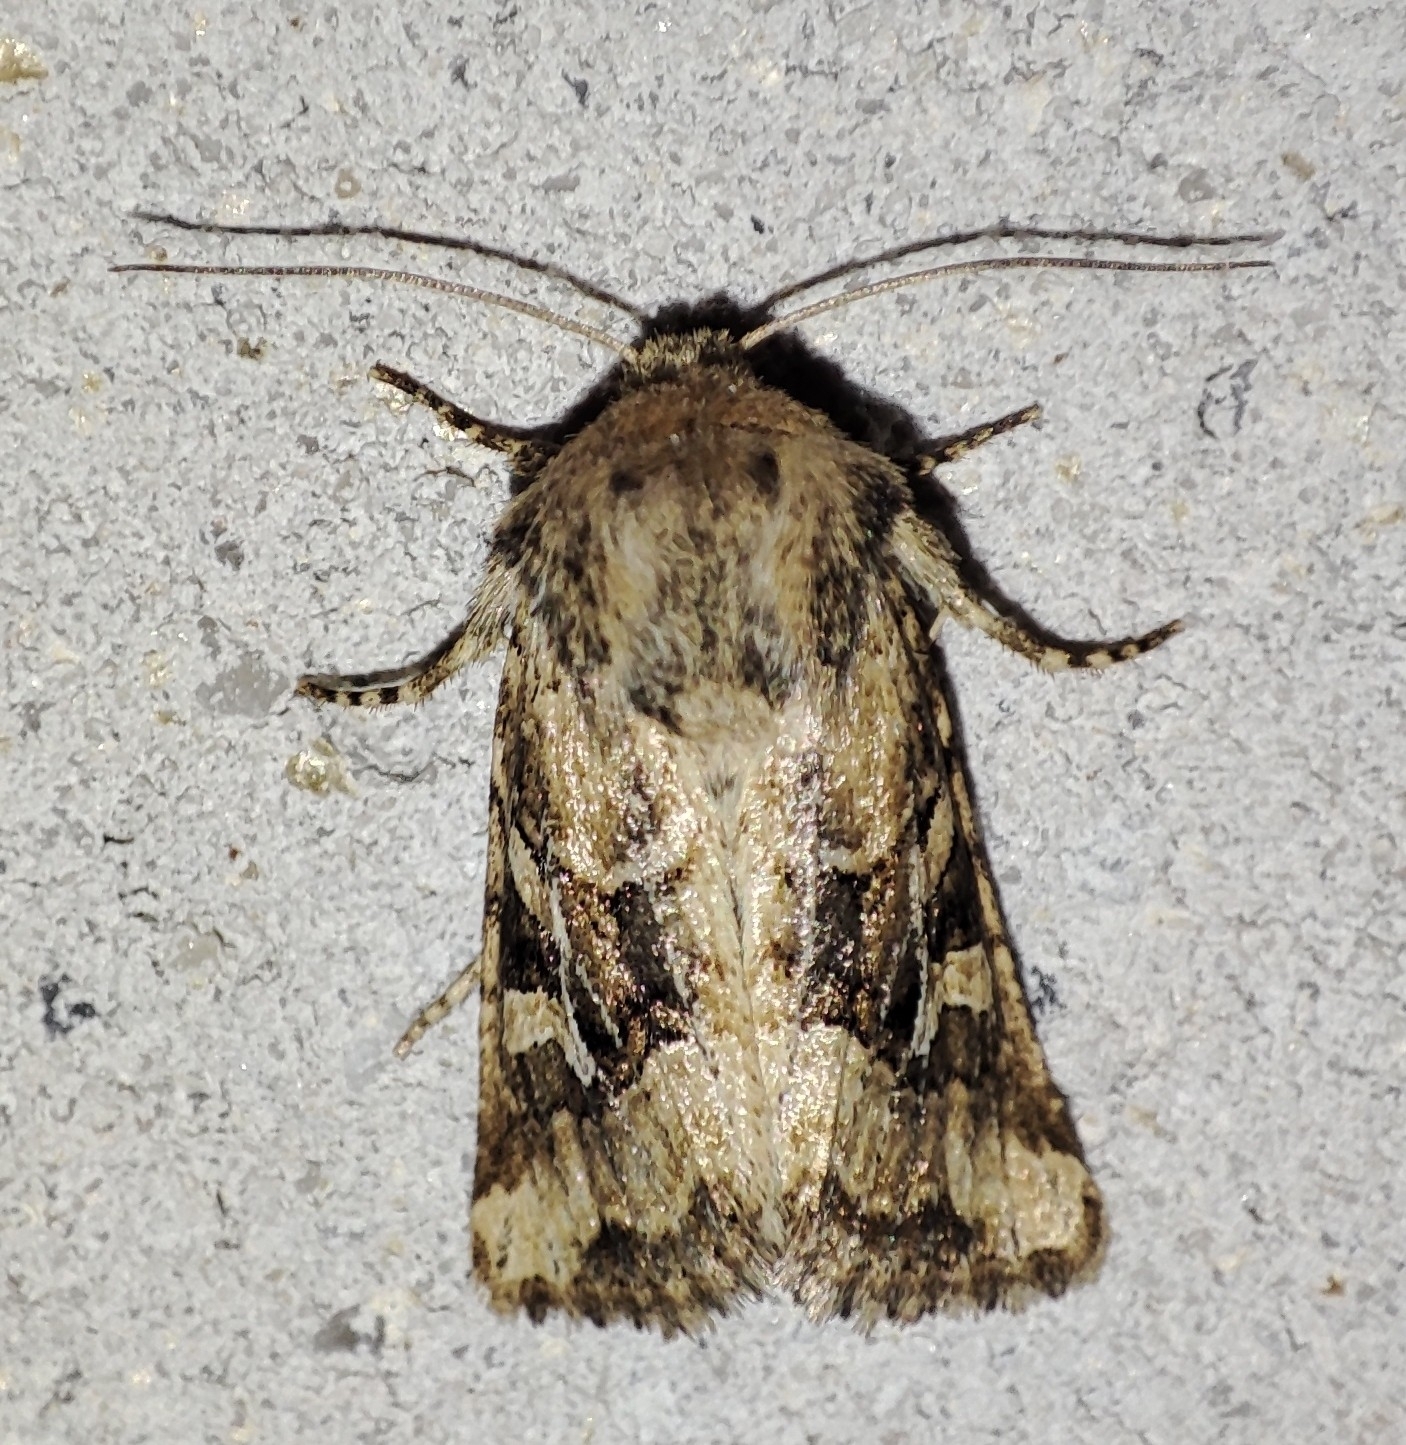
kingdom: Animalia
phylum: Arthropoda
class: Insecta
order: Lepidoptera
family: Noctuidae
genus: Luperina
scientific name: Luperina dumerilii
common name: Dumeril's rustic
